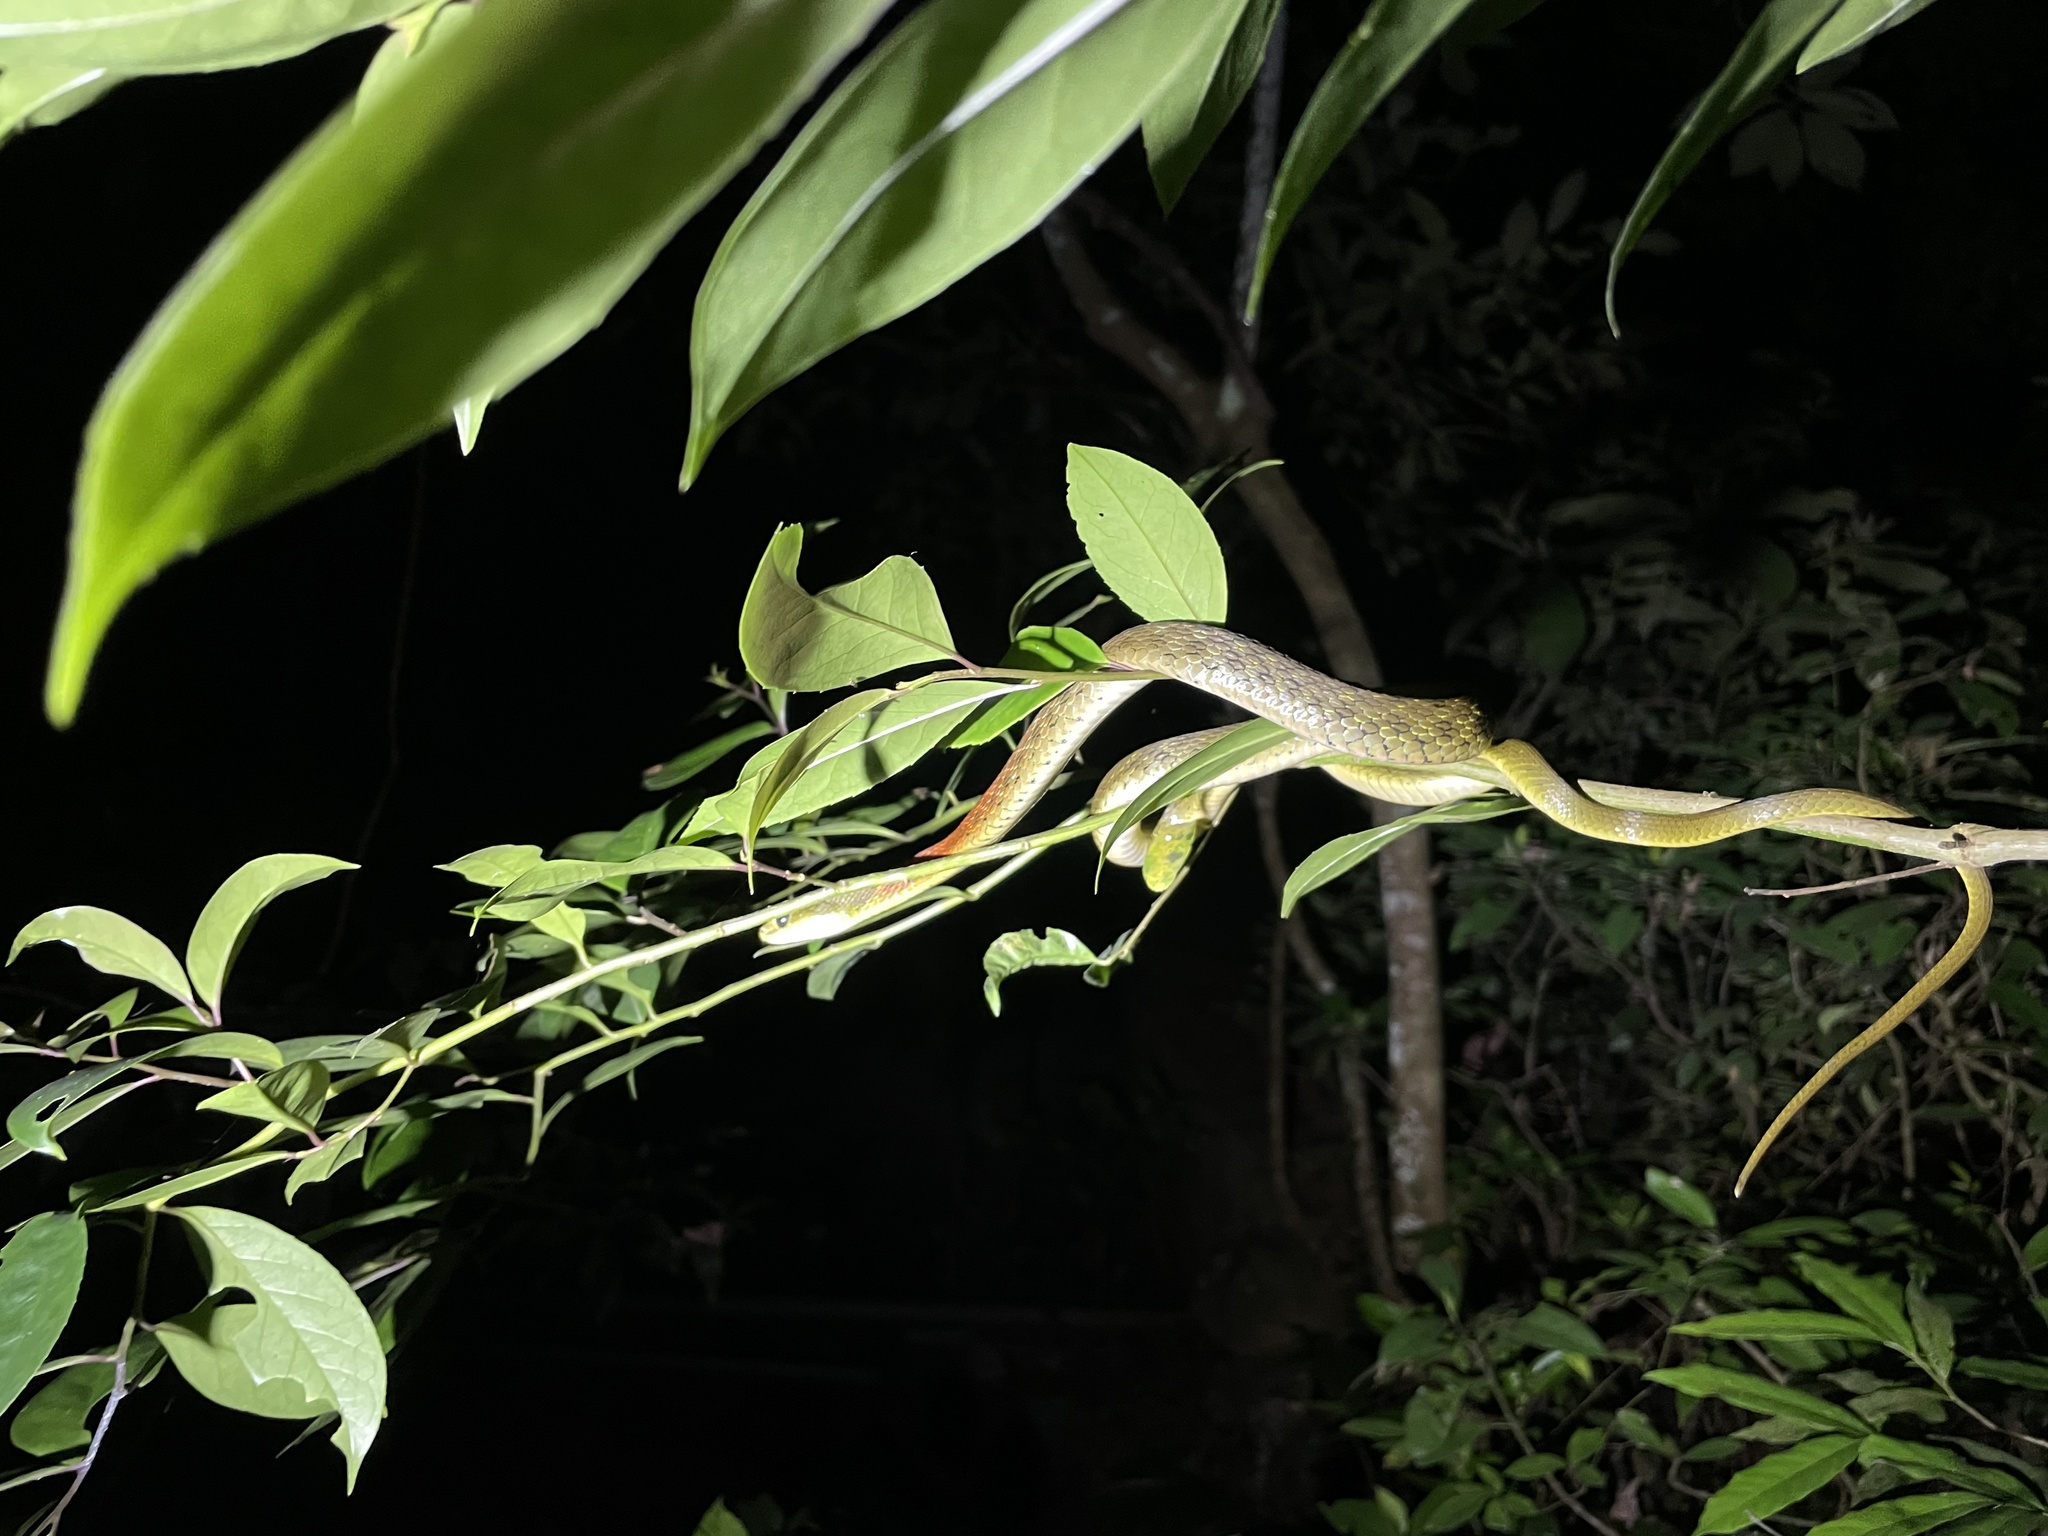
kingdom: Animalia
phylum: Chordata
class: Squamata
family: Colubridae
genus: Rhabdophis
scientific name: Rhabdophis helleri
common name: Heller’s red-necked keelback
